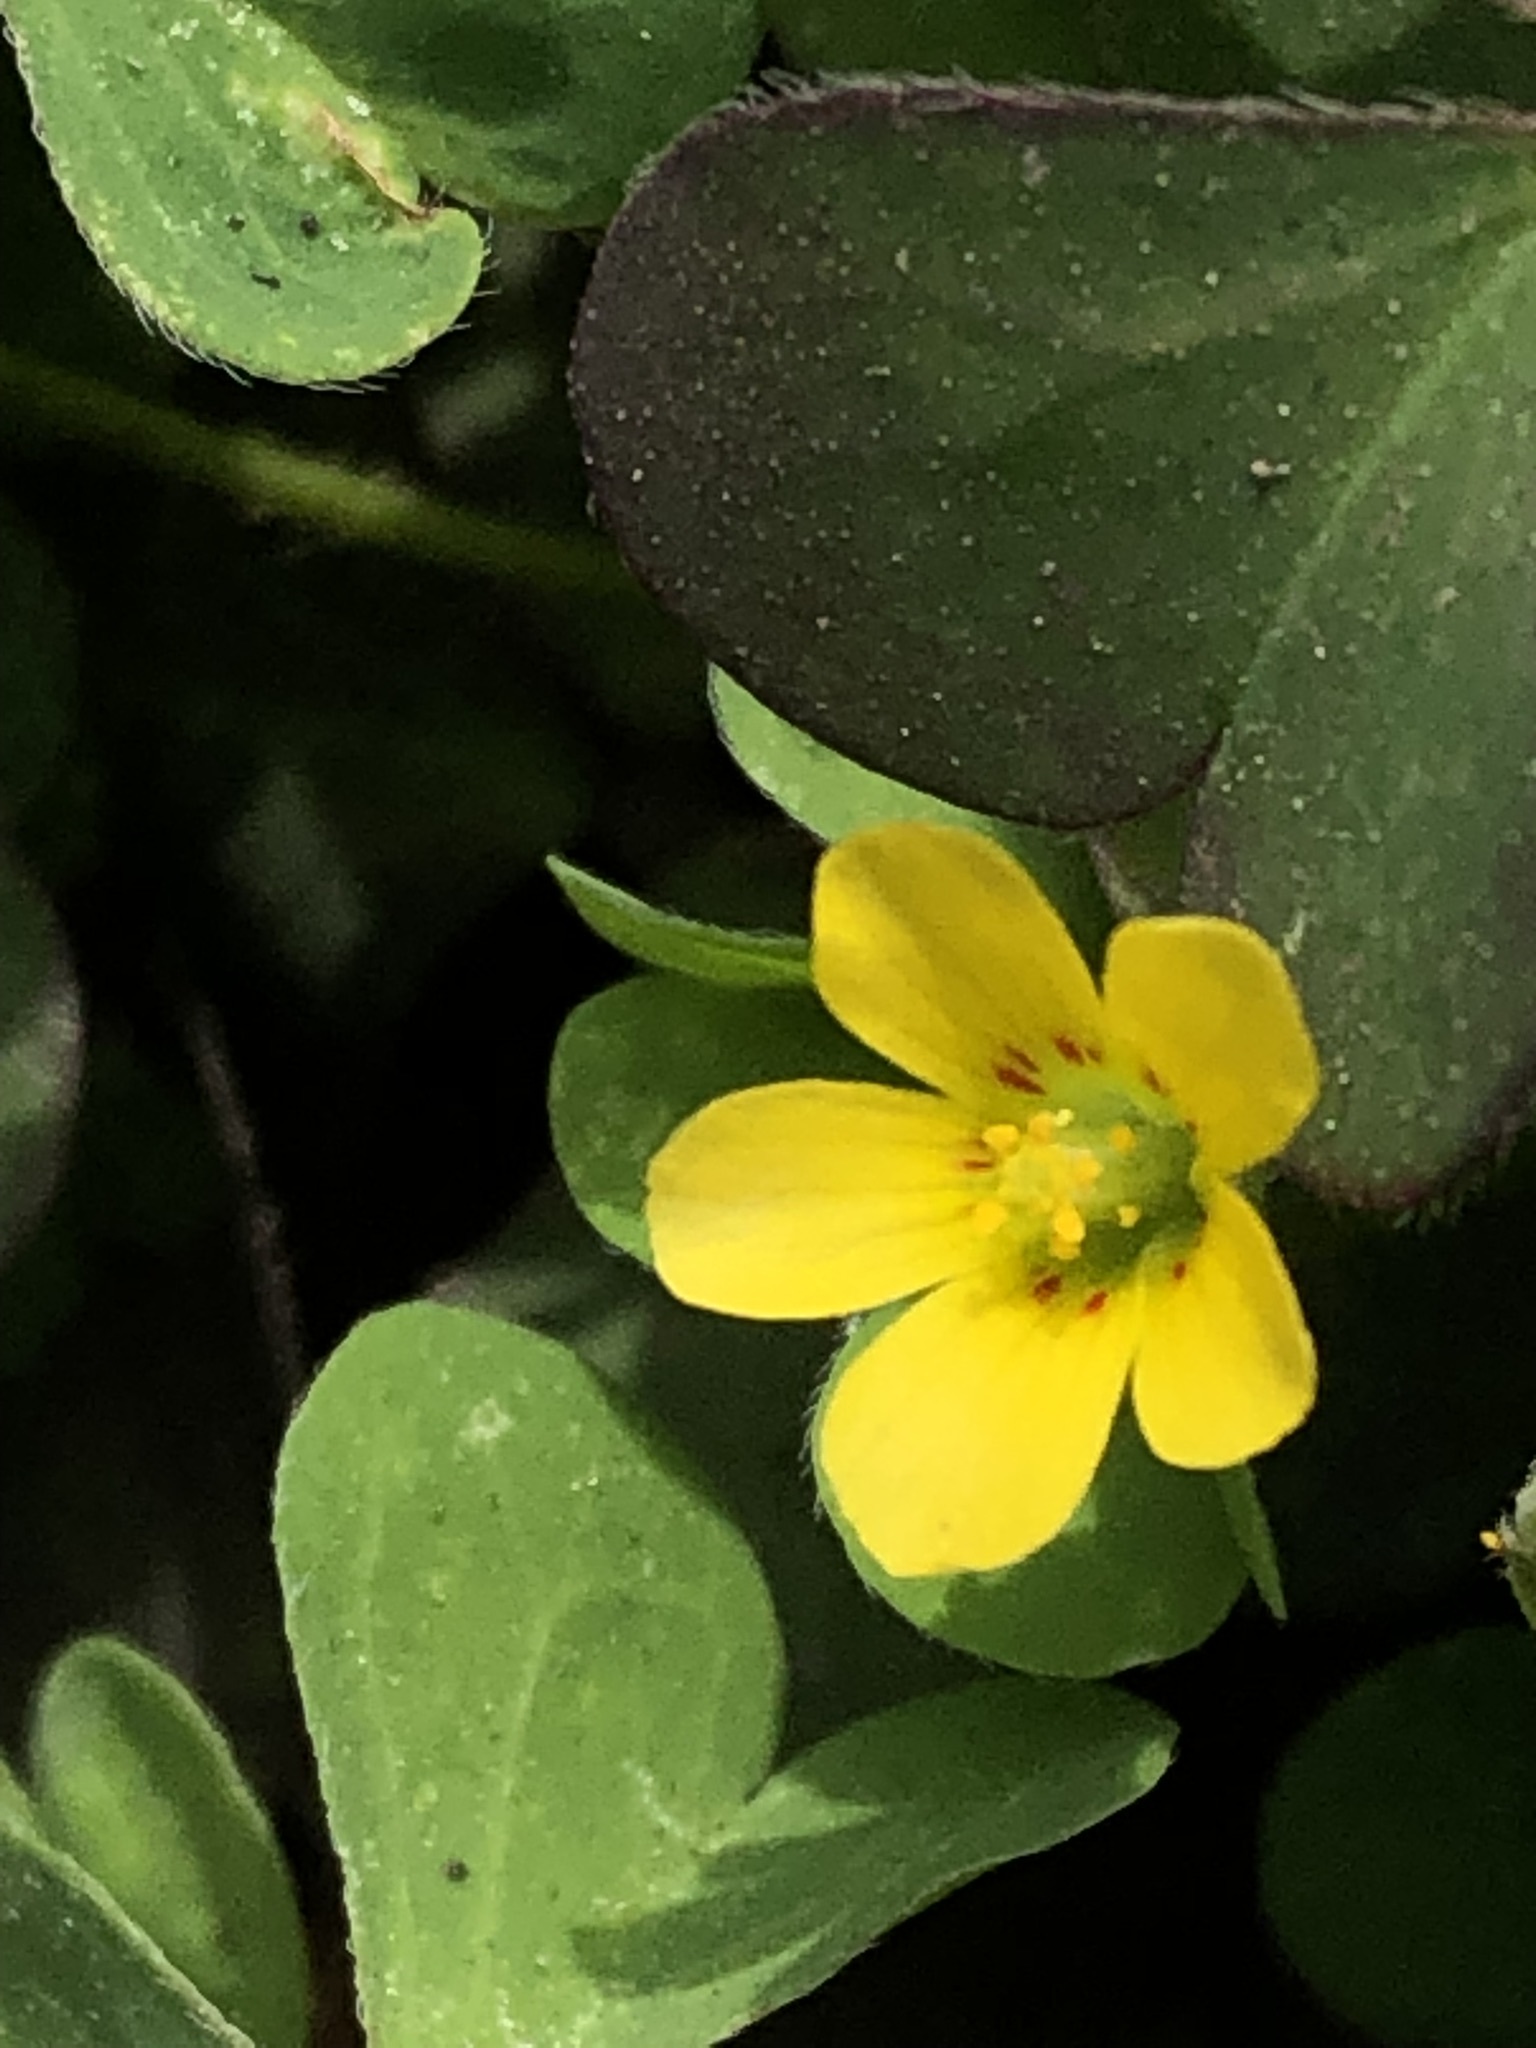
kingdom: Plantae
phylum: Tracheophyta
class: Magnoliopsida
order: Oxalidales
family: Oxalidaceae
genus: Oxalis
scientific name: Oxalis corniculata
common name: Procumbent yellow-sorrel
